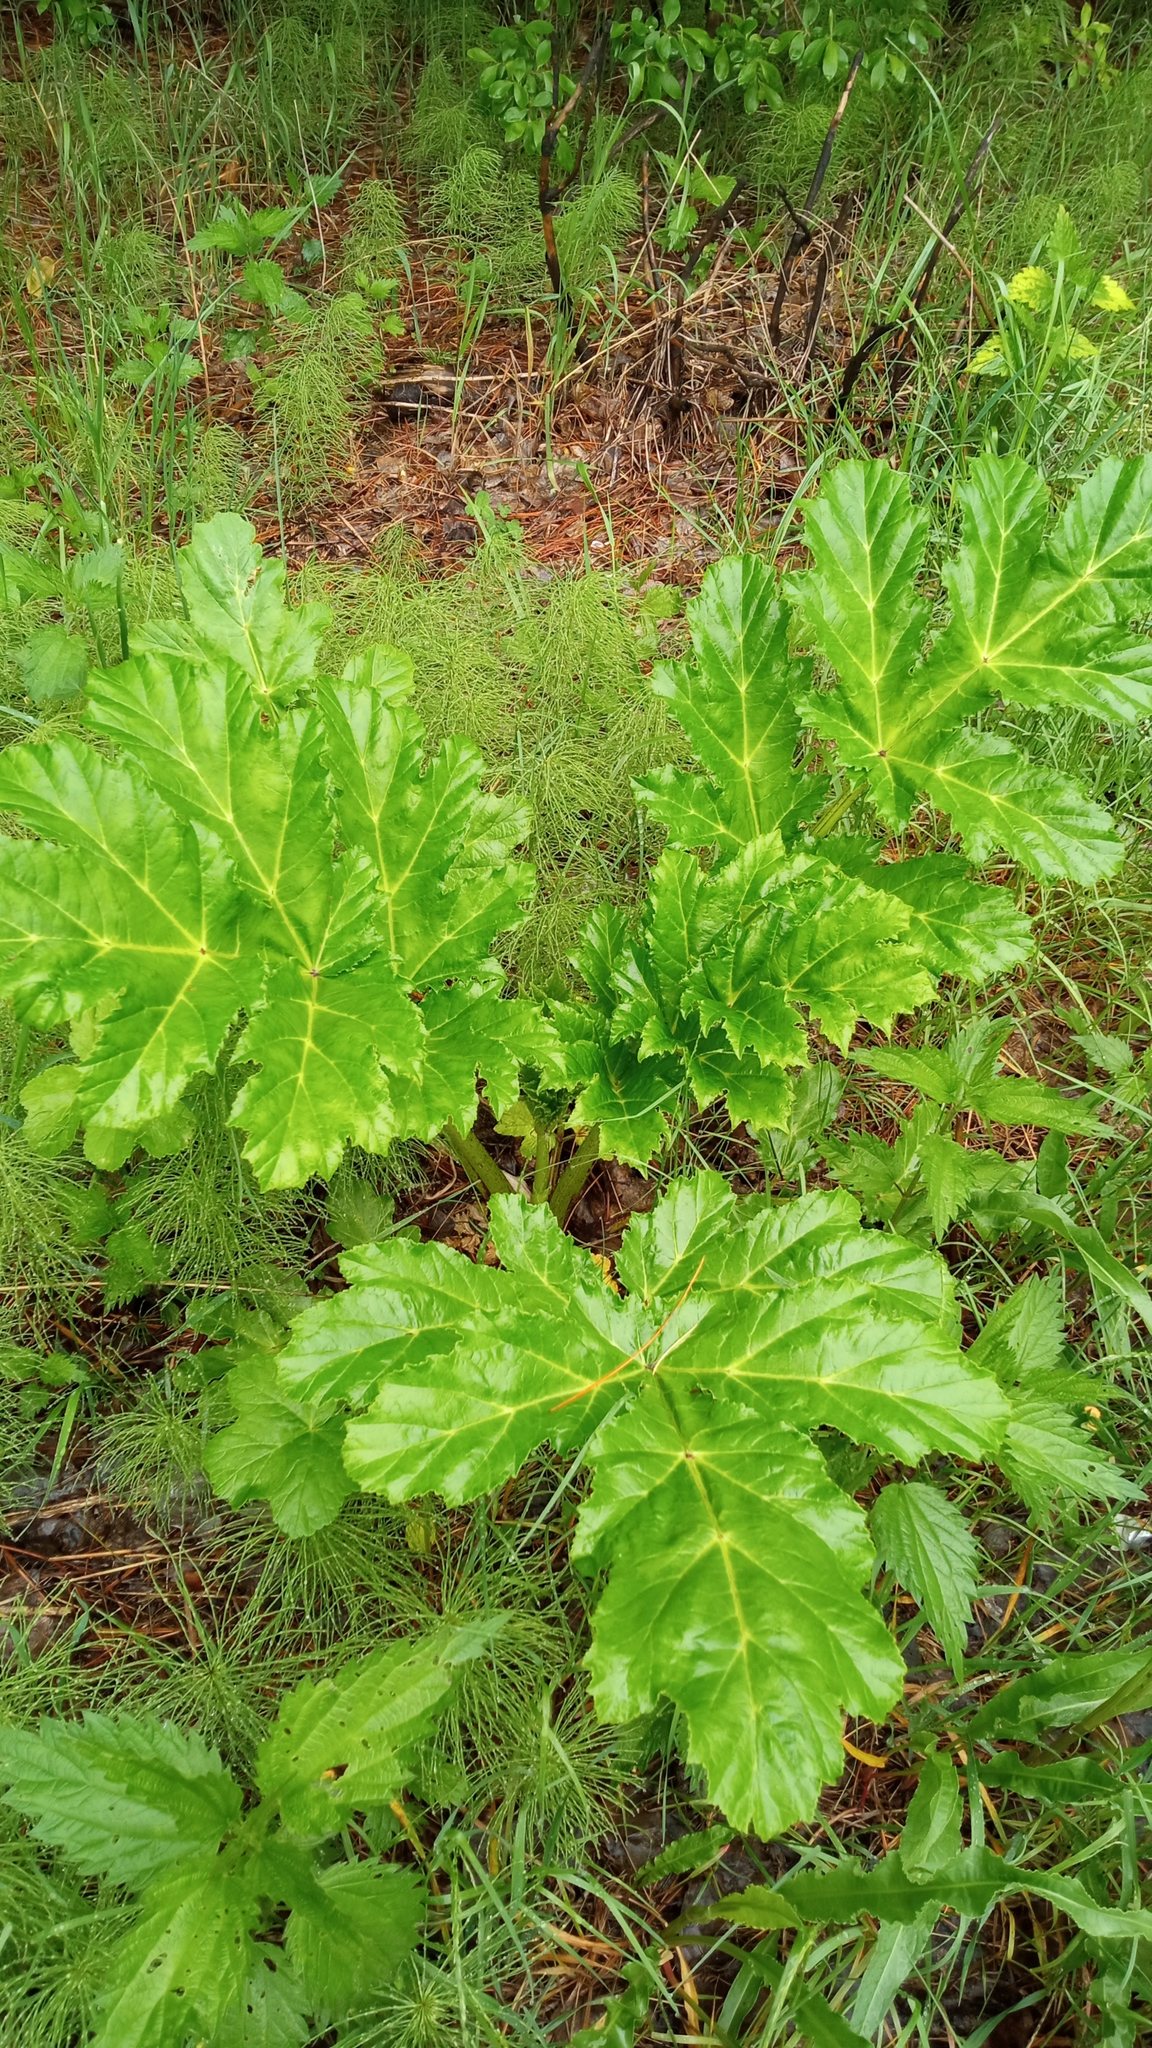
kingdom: Plantae
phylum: Tracheophyta
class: Magnoliopsida
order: Apiales
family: Apiaceae
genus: Heracleum
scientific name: Heracleum sosnowskyi
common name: Sosnowsky's hogweed
